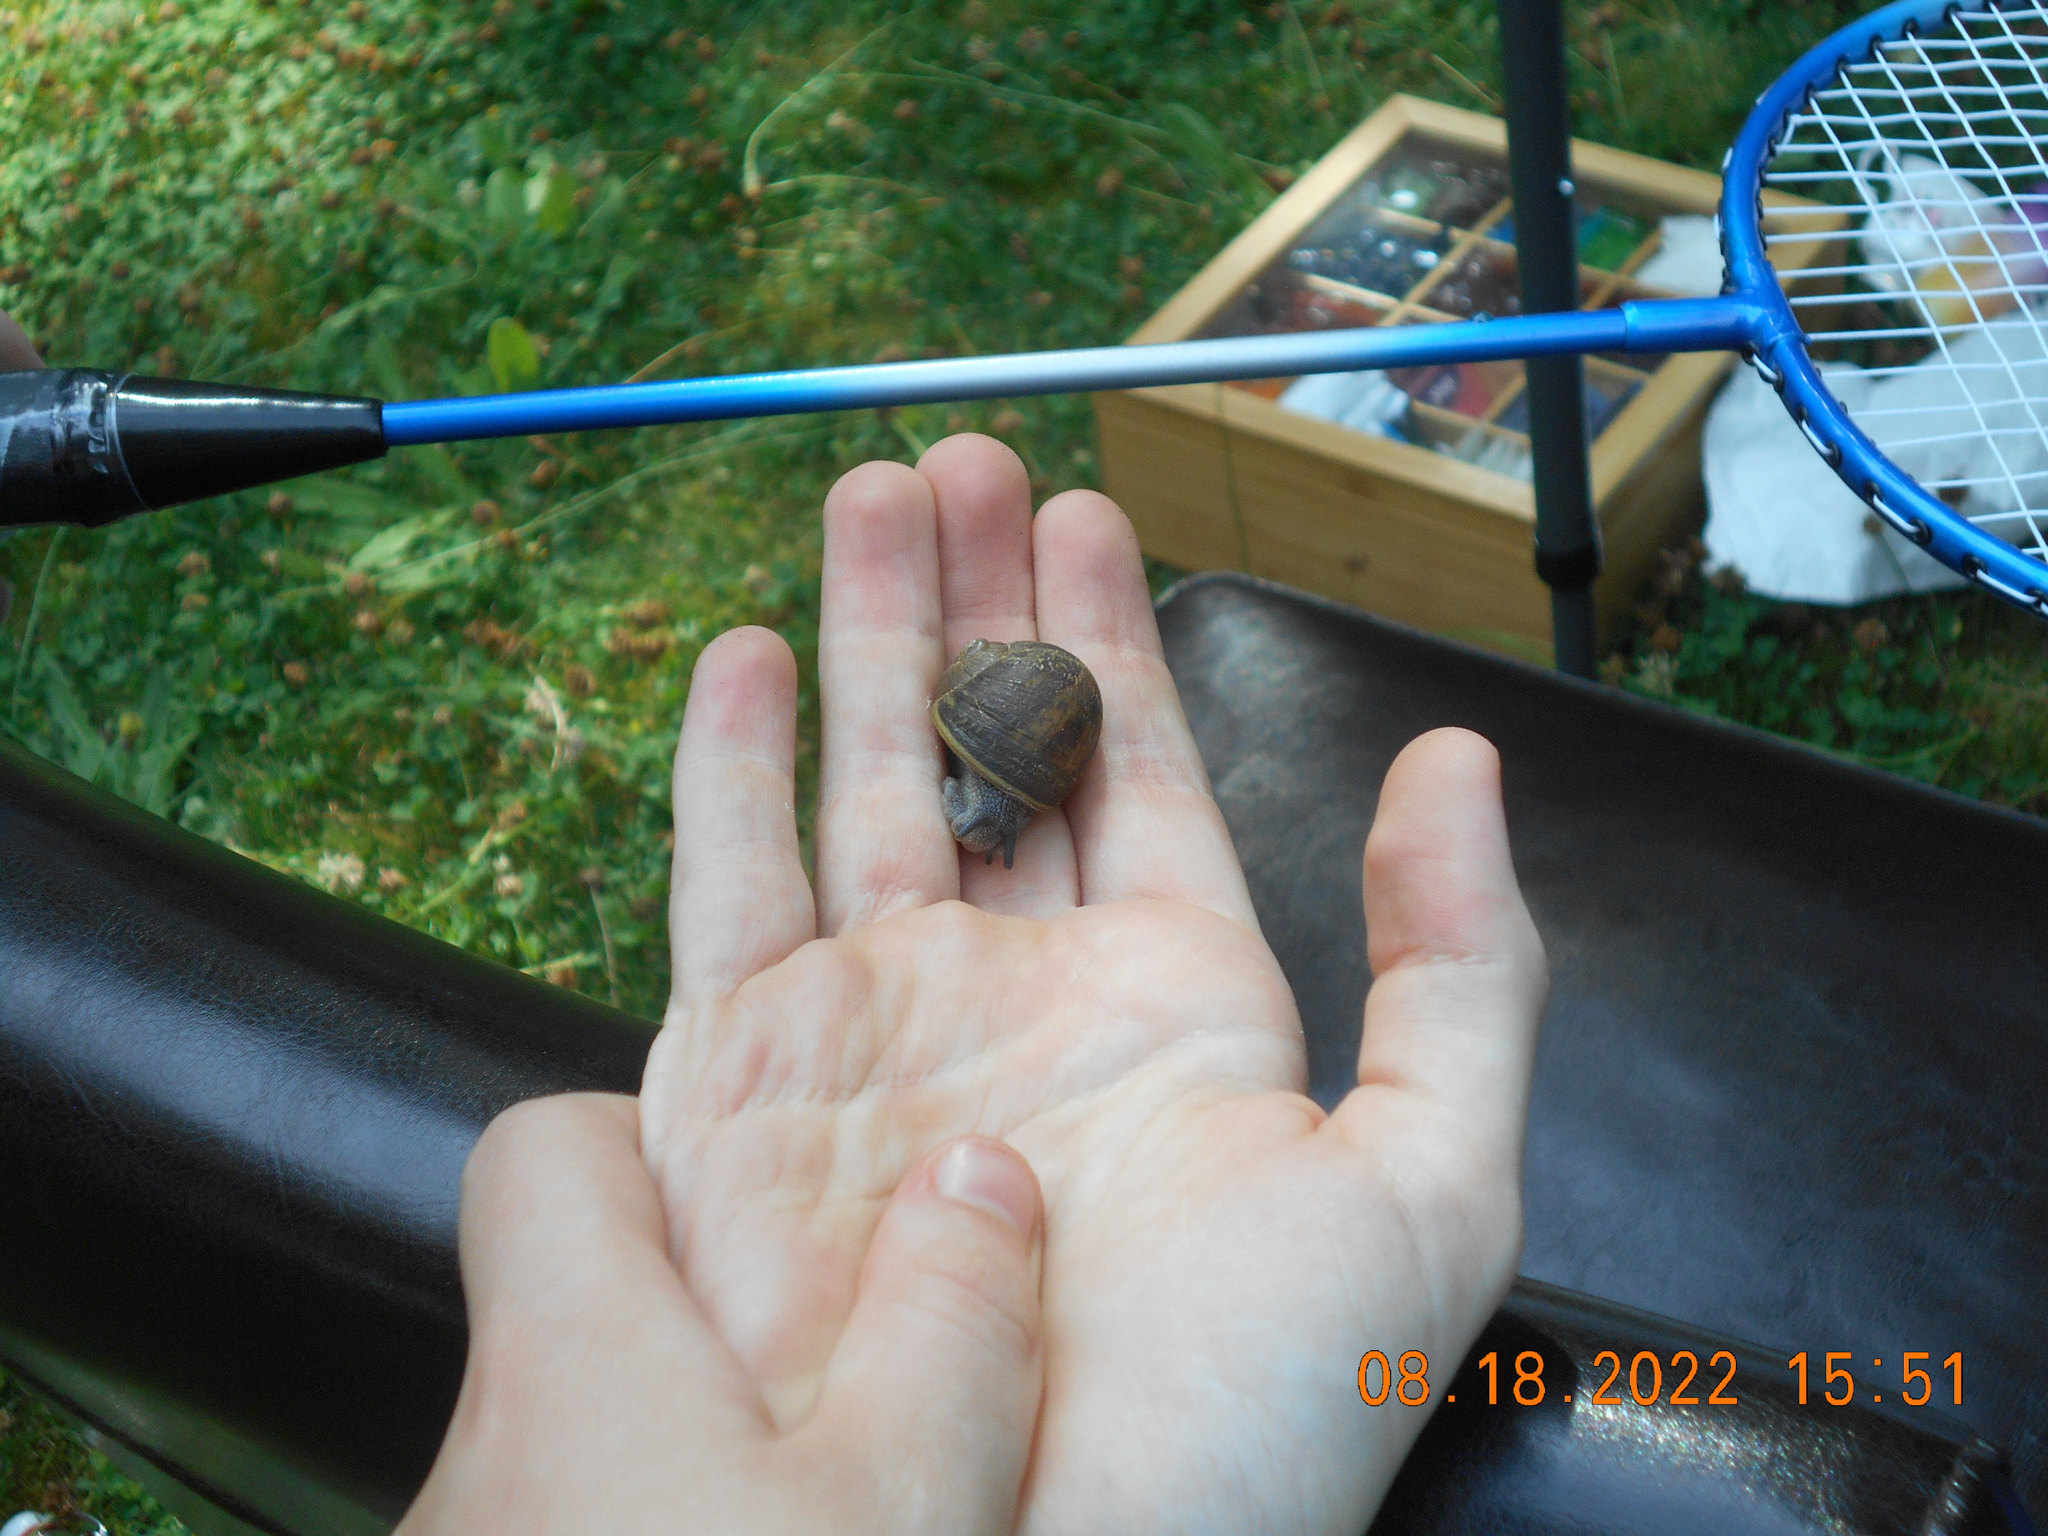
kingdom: Animalia
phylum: Mollusca
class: Gastropoda
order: Stylommatophora
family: Helicidae
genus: Cornu
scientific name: Cornu aspersum
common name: Brown garden snail
